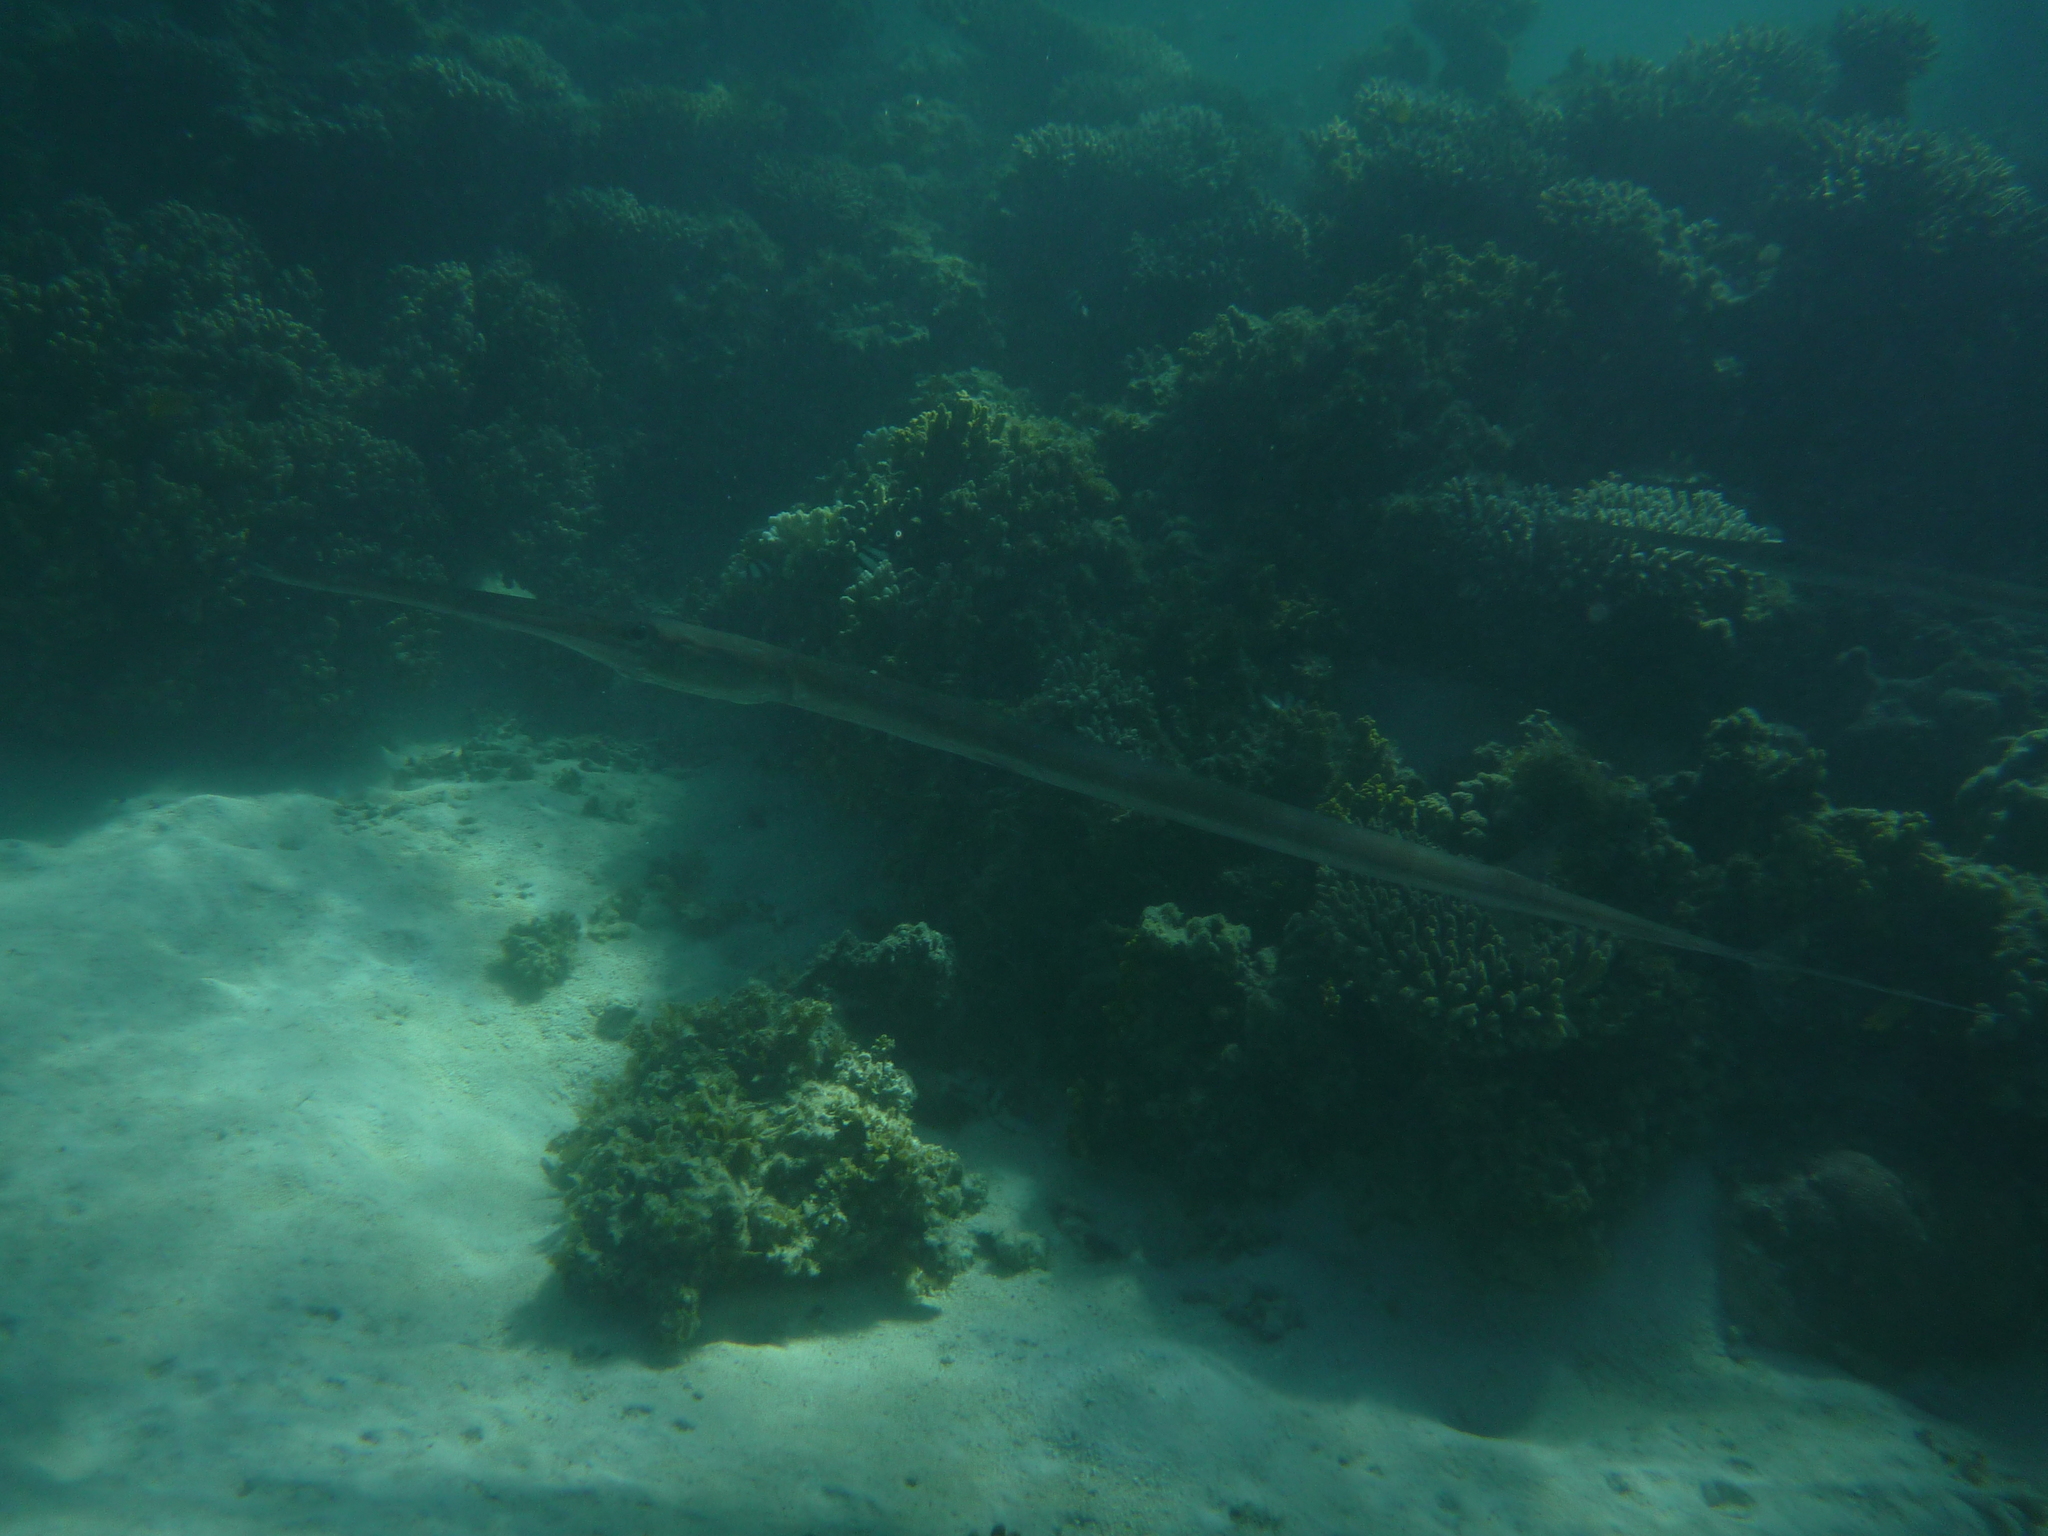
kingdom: Animalia
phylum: Chordata
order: Syngnathiformes
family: Fistulariidae
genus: Fistularia
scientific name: Fistularia commersonii
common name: Bluespotted cornetfish
